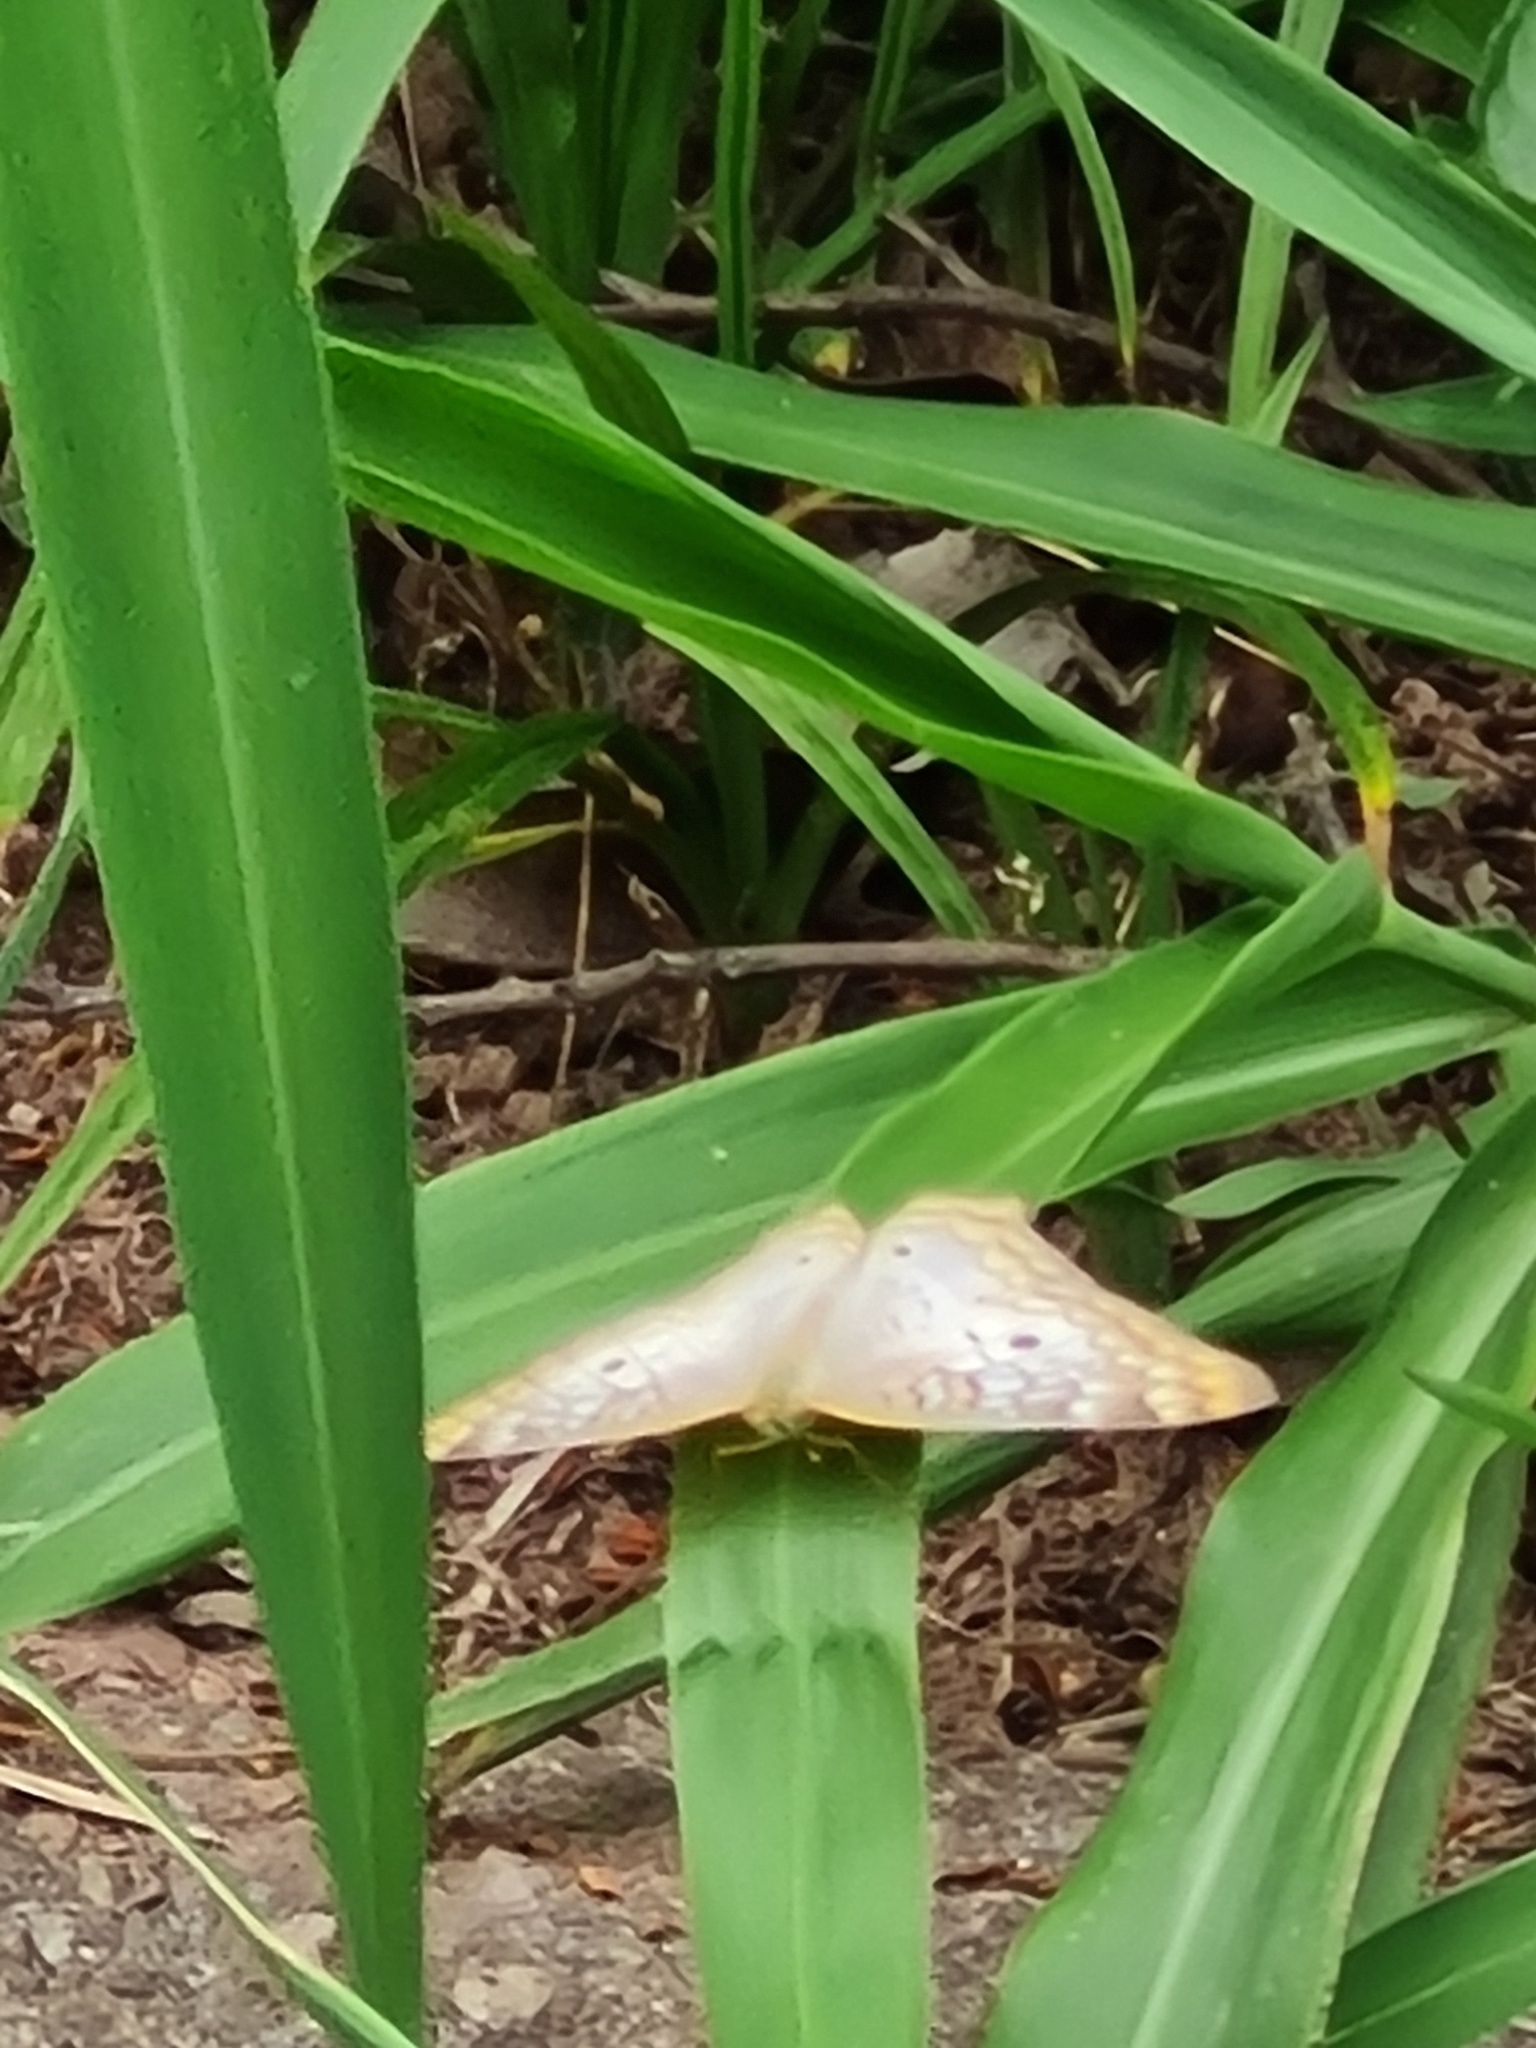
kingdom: Animalia
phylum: Arthropoda
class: Insecta
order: Lepidoptera
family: Nymphalidae
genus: Anartia
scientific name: Anartia jatrophae
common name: White peacock
